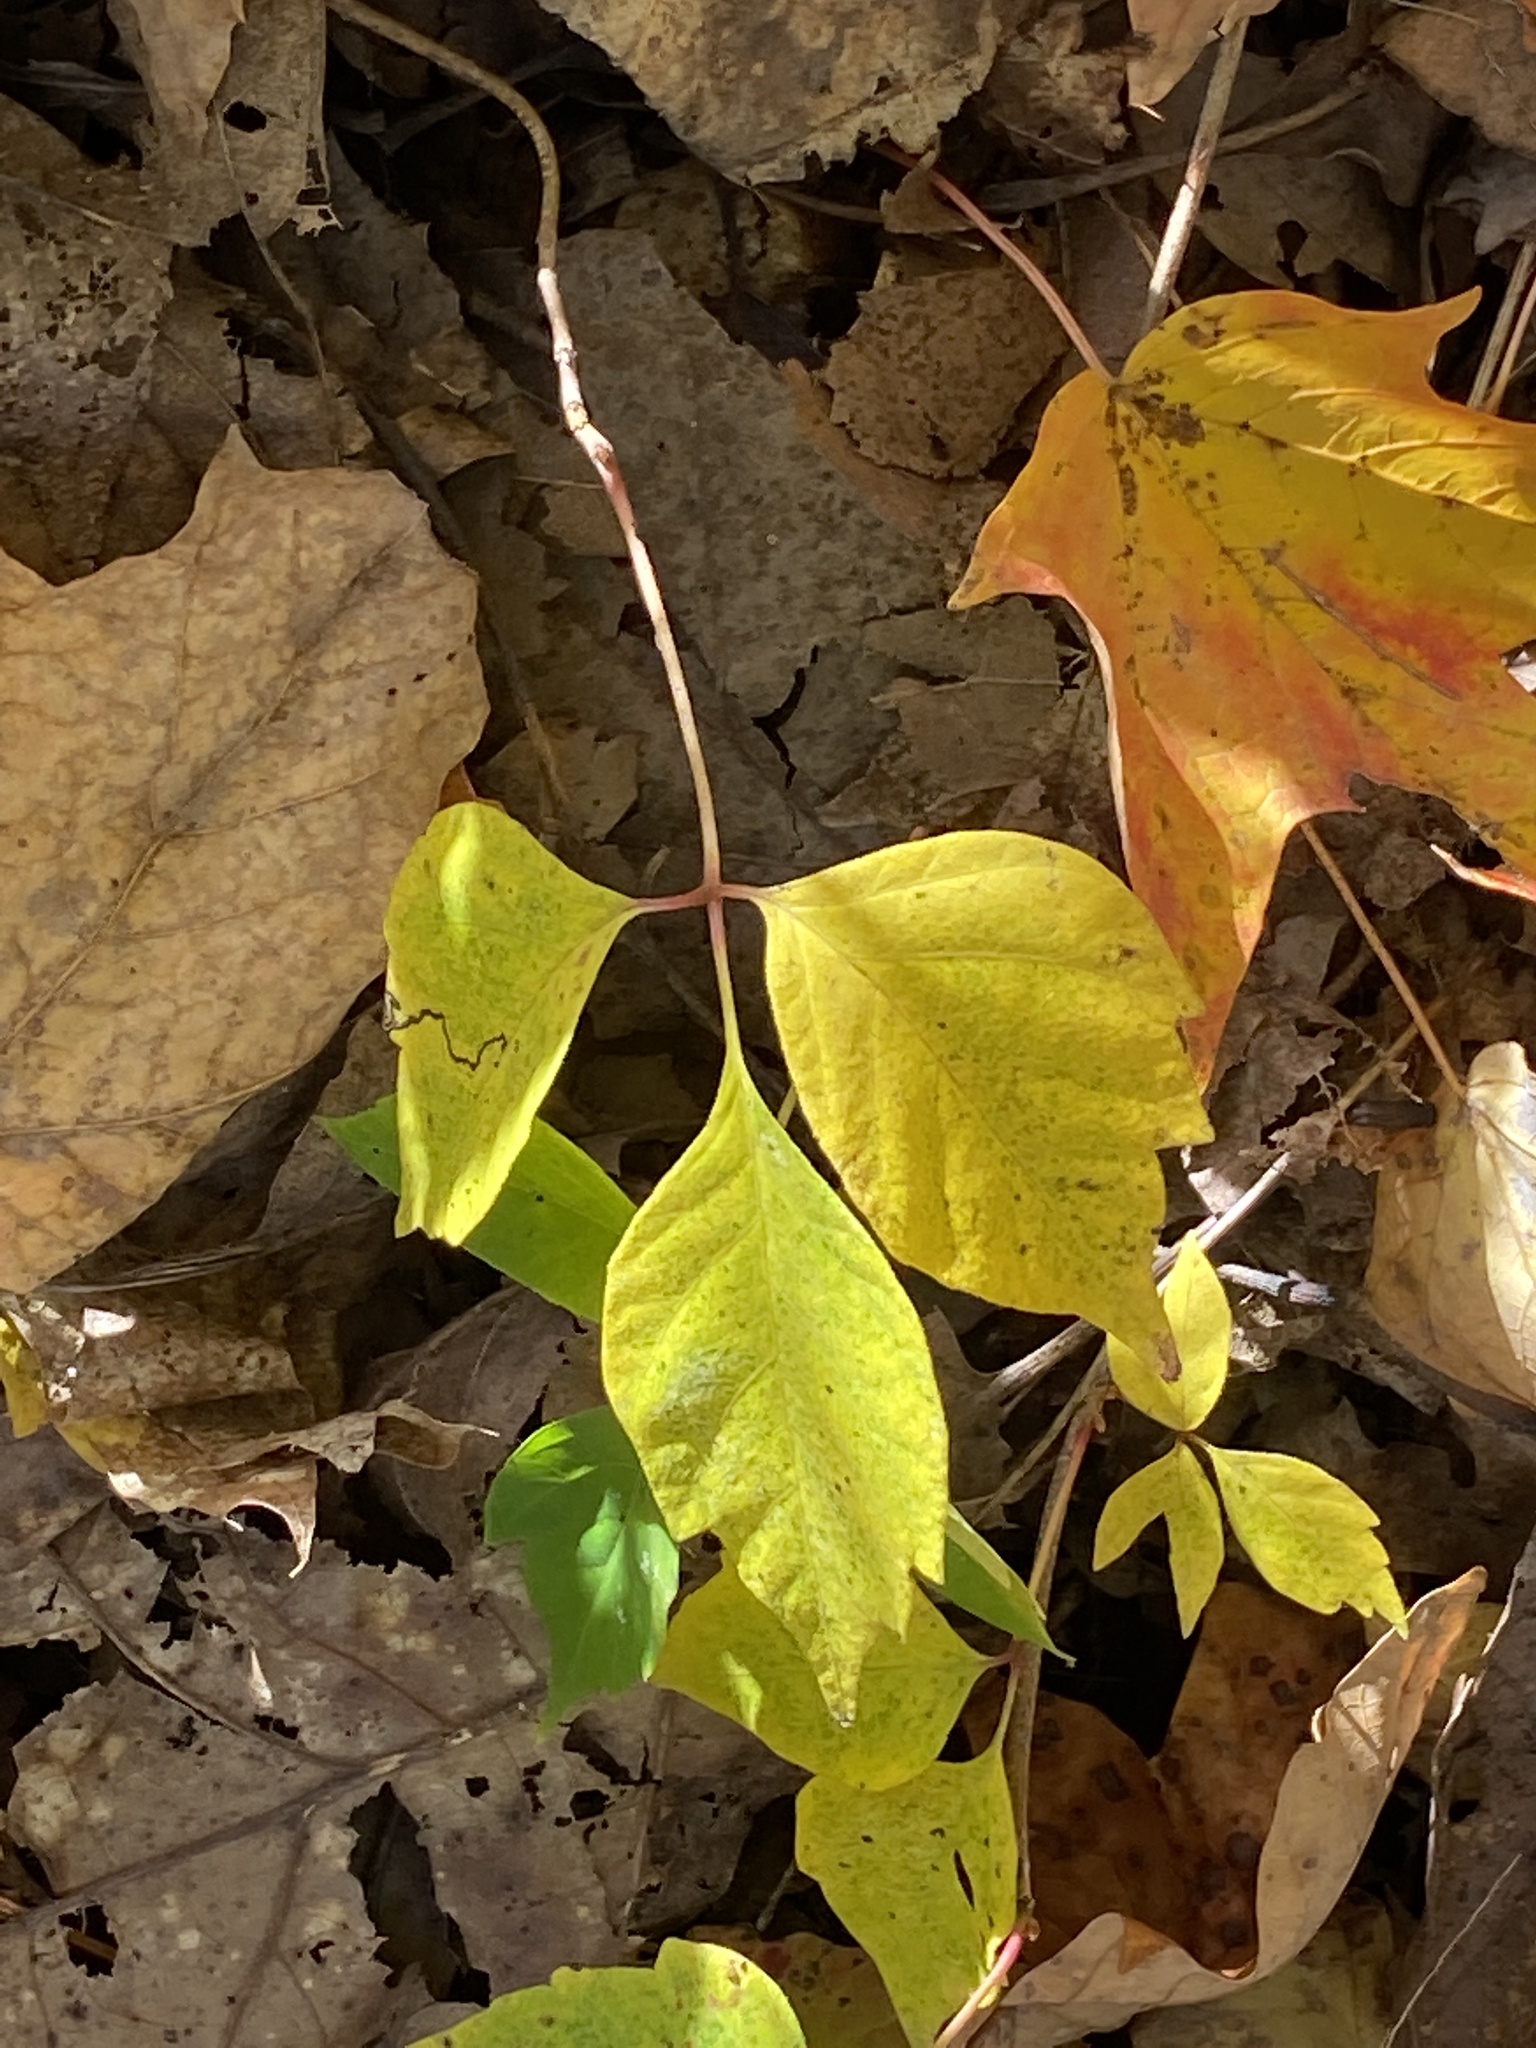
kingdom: Plantae
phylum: Tracheophyta
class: Magnoliopsida
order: Sapindales
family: Anacardiaceae
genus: Toxicodendron
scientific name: Toxicodendron radicans
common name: Poison ivy
